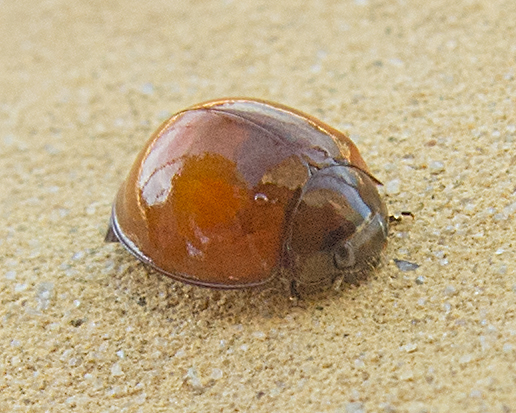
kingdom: Animalia
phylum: Arthropoda
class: Insecta
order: Coleoptera
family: Coccinellidae
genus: Brumus
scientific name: Brumus quadripustulatus
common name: Ladybird beetle
